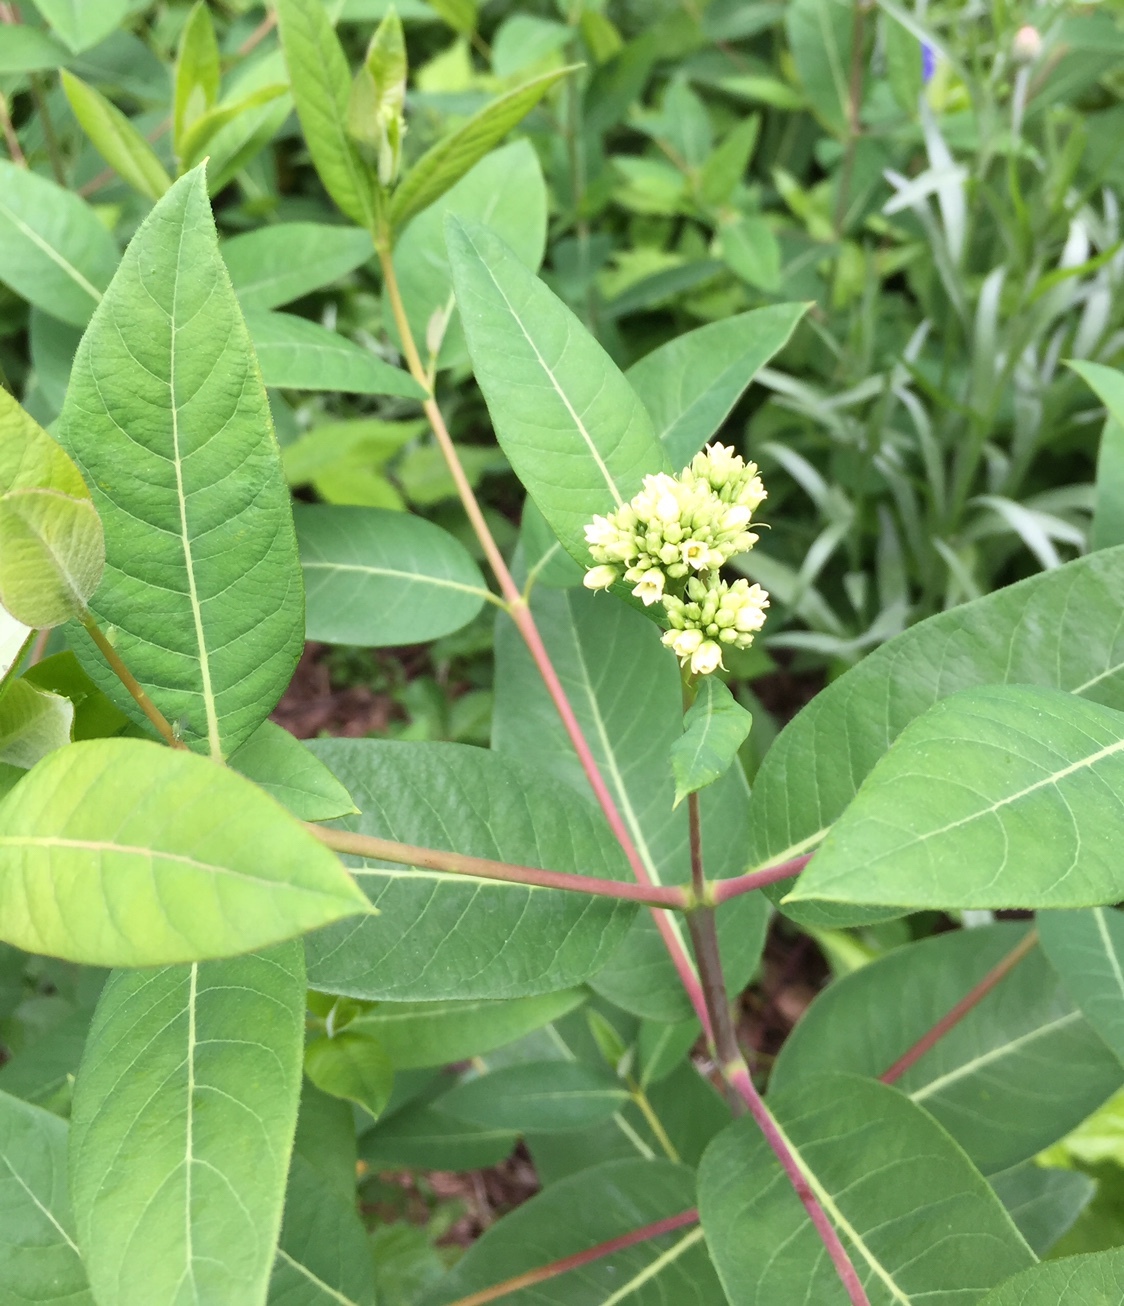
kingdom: Plantae
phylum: Tracheophyta
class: Magnoliopsida
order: Gentianales
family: Apocynaceae
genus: Apocynum
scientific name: Apocynum cannabinum
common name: Hemp dogbane
